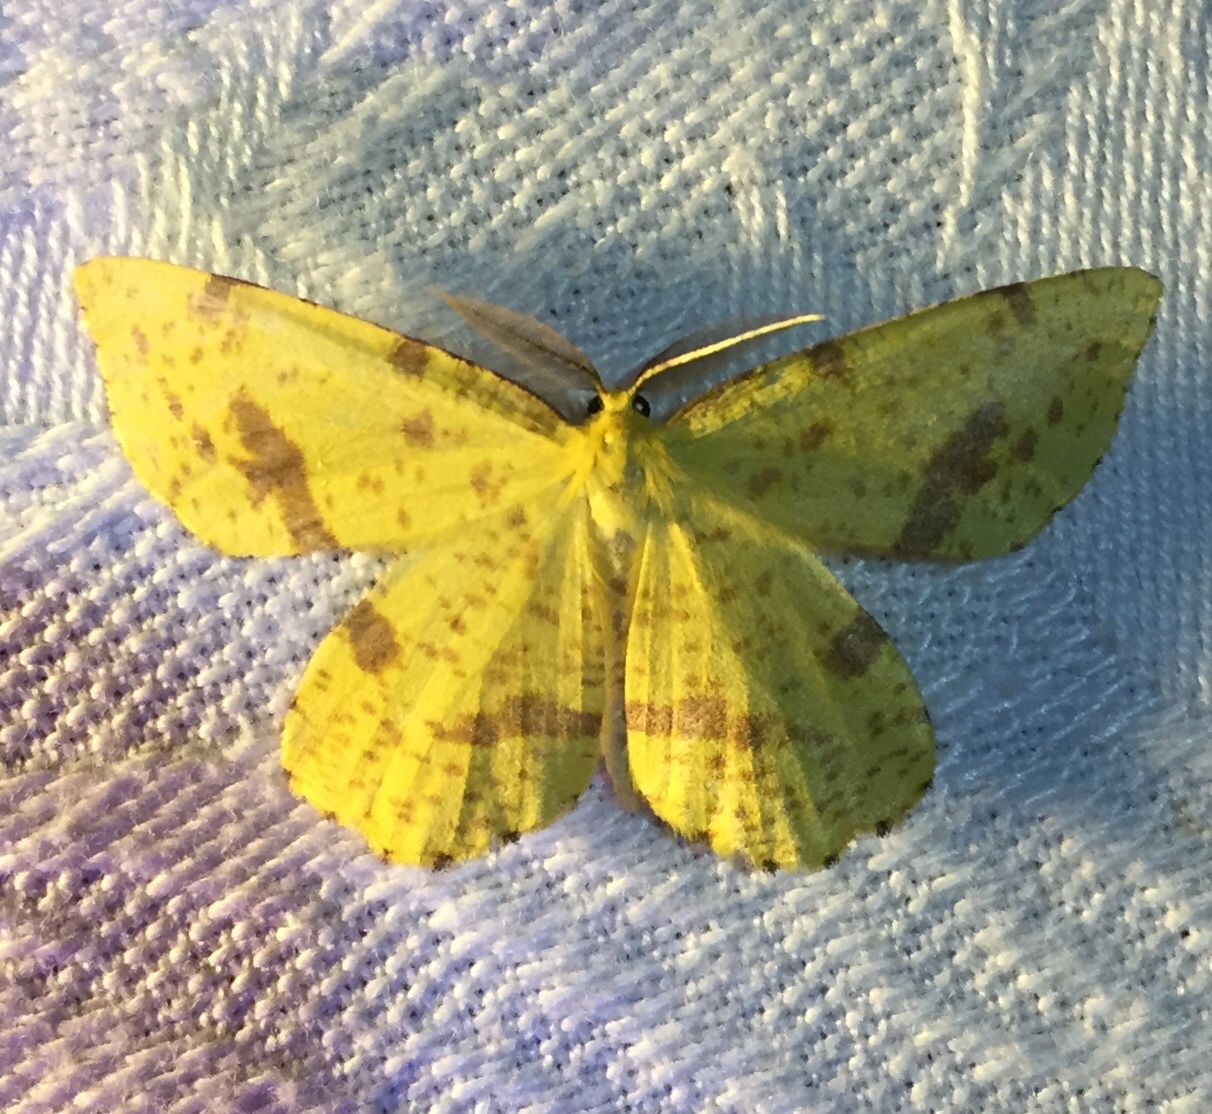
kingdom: Animalia
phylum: Arthropoda
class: Insecta
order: Lepidoptera
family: Geometridae
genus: Xanthotype
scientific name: Xanthotype
